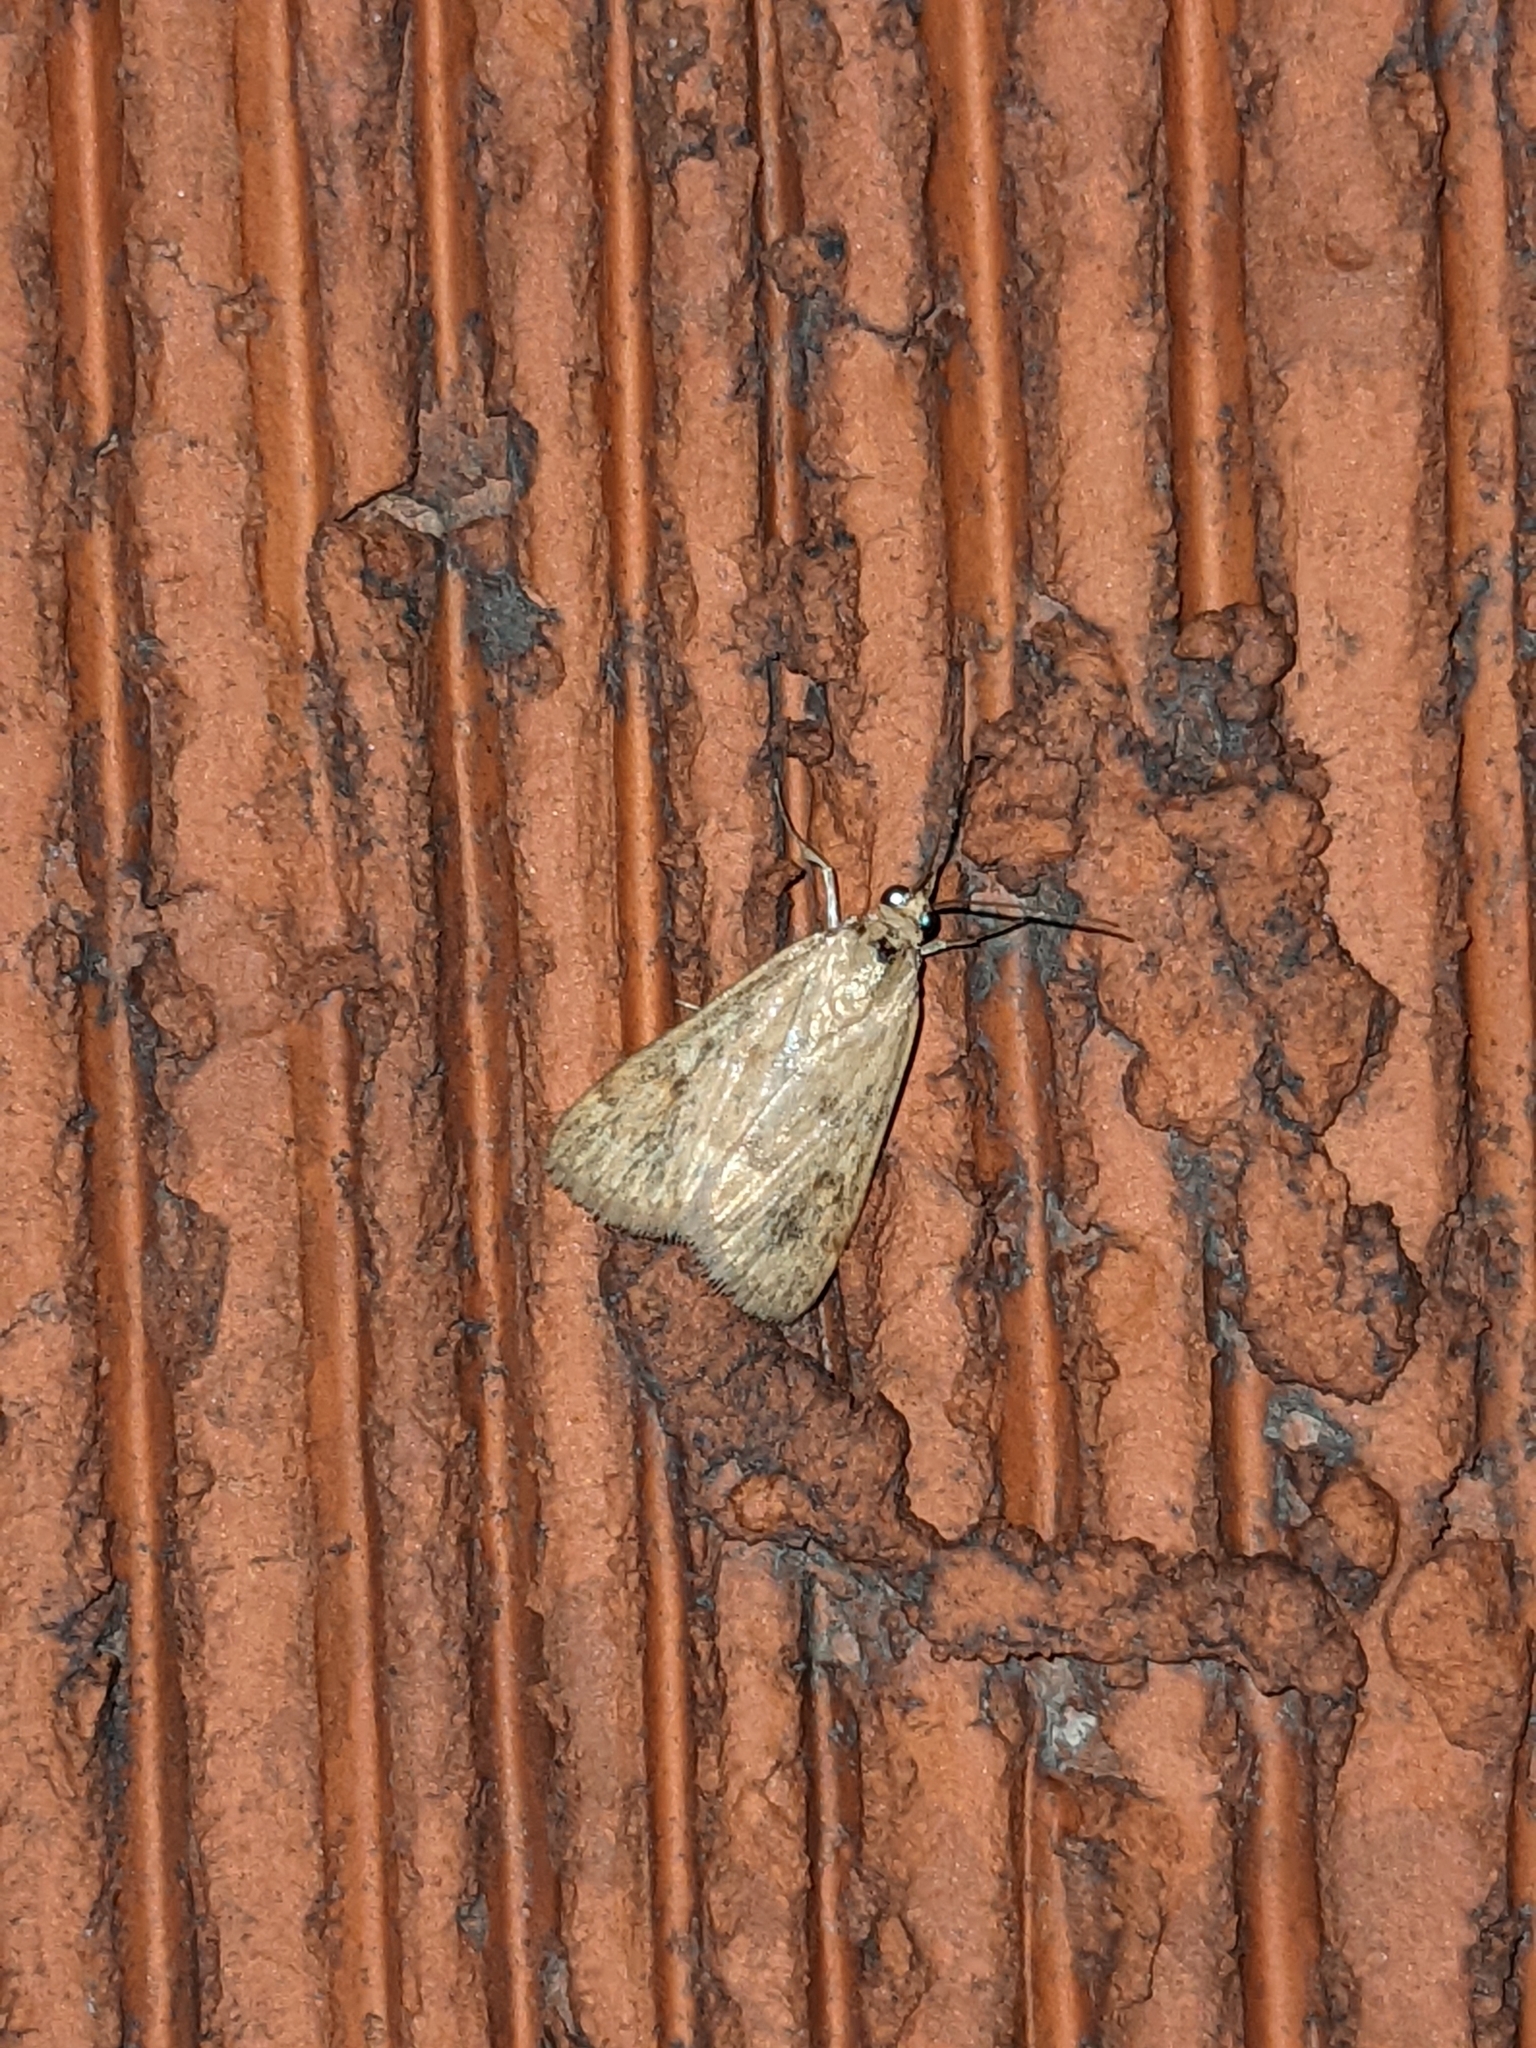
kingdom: Animalia
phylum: Arthropoda
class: Insecta
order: Lepidoptera
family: Crambidae
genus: Achyra
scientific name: Achyra rantalis
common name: Garden webworm
